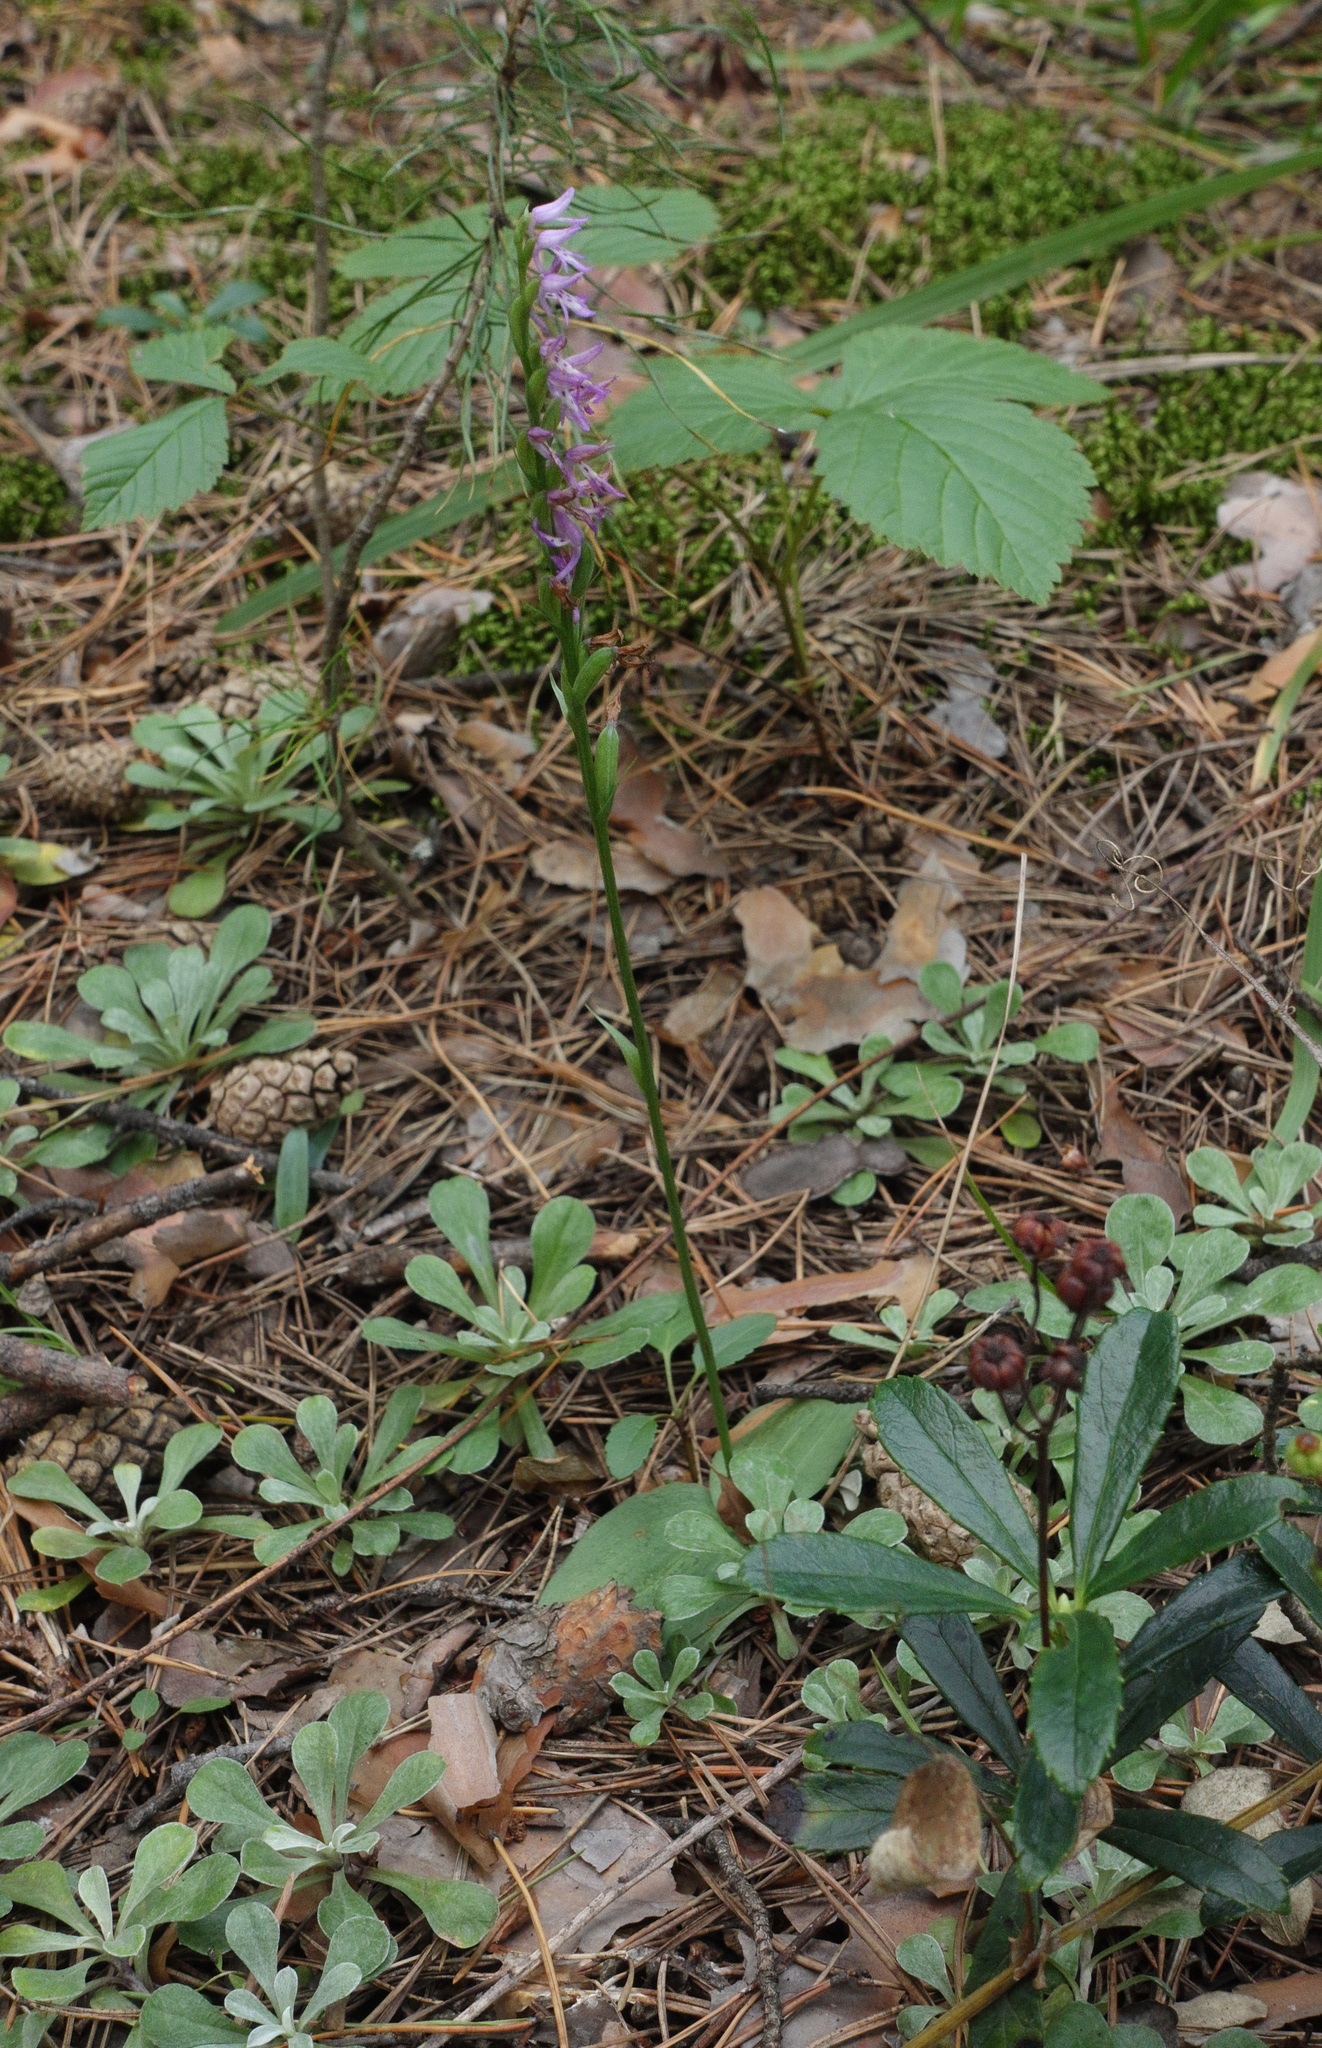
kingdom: Plantae
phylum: Tracheophyta
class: Liliopsida
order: Asparagales
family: Orchidaceae
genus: Hemipilia
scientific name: Hemipilia cucullata
